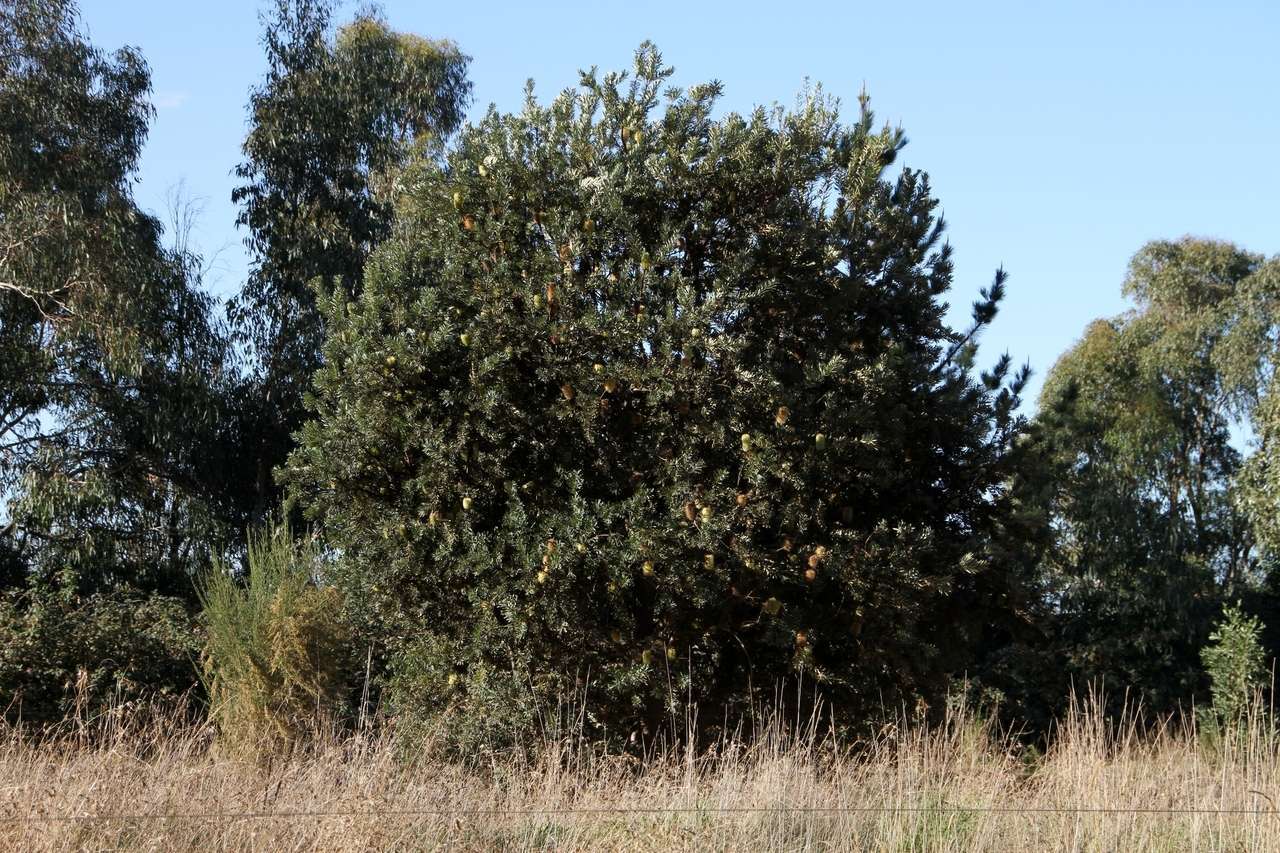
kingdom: Plantae
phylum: Tracheophyta
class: Magnoliopsida
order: Proteales
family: Proteaceae
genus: Banksia
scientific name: Banksia marginata
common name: Silver banksia
